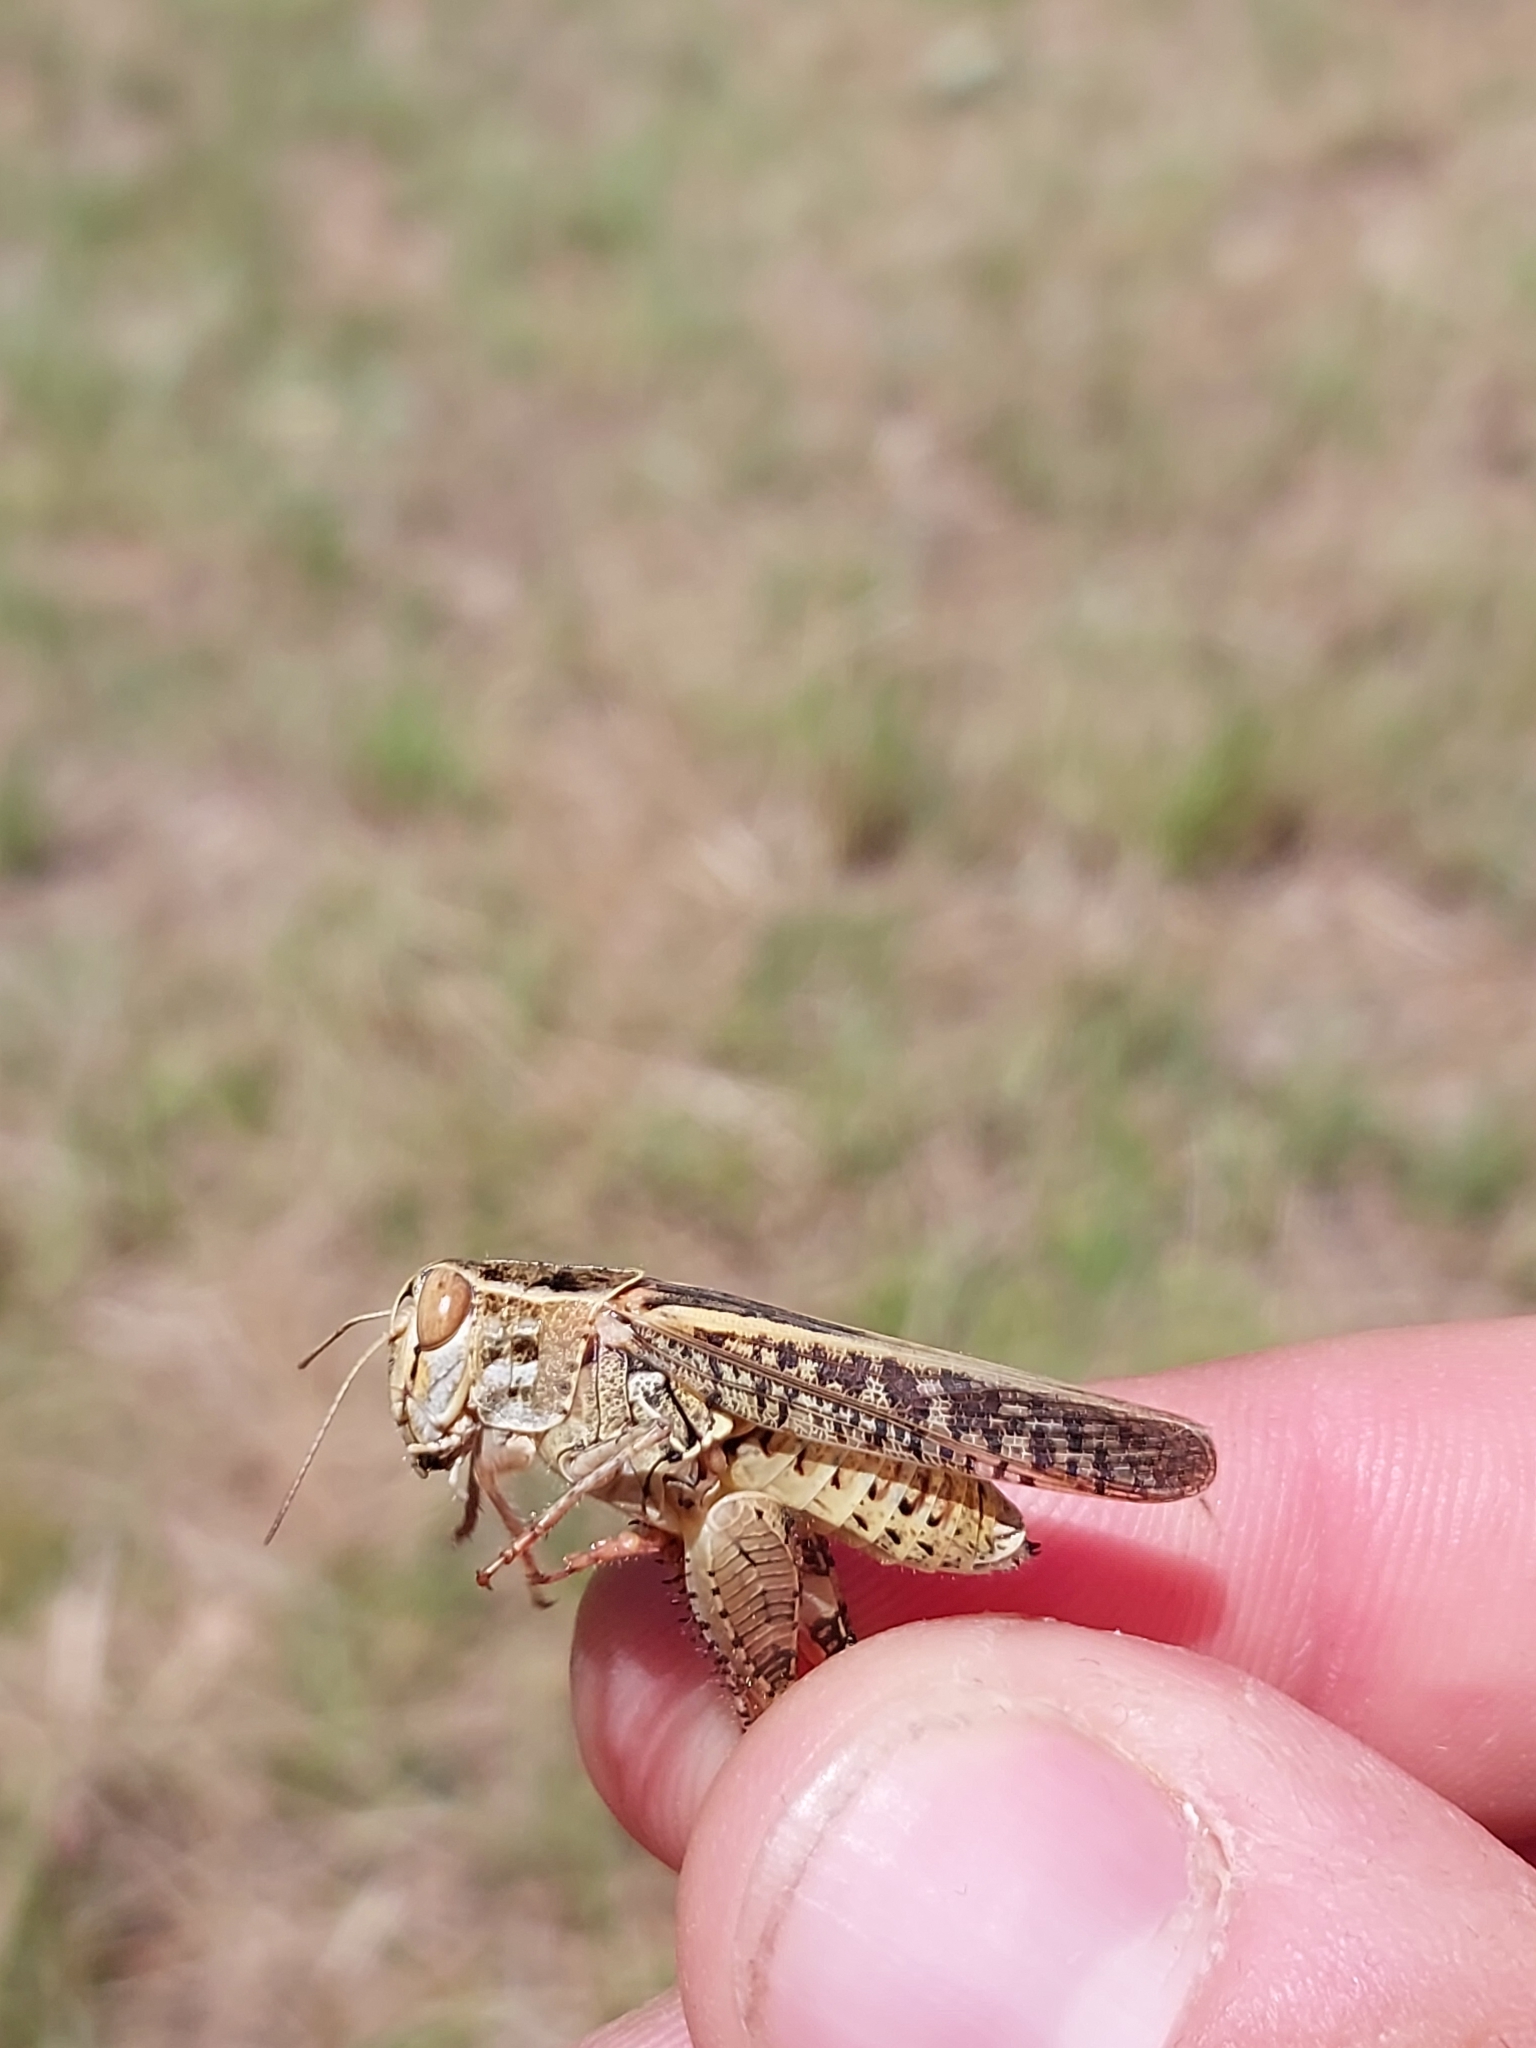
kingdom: Animalia
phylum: Arthropoda
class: Insecta
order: Orthoptera
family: Acrididae
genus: Calliptamus
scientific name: Calliptamus italicus
